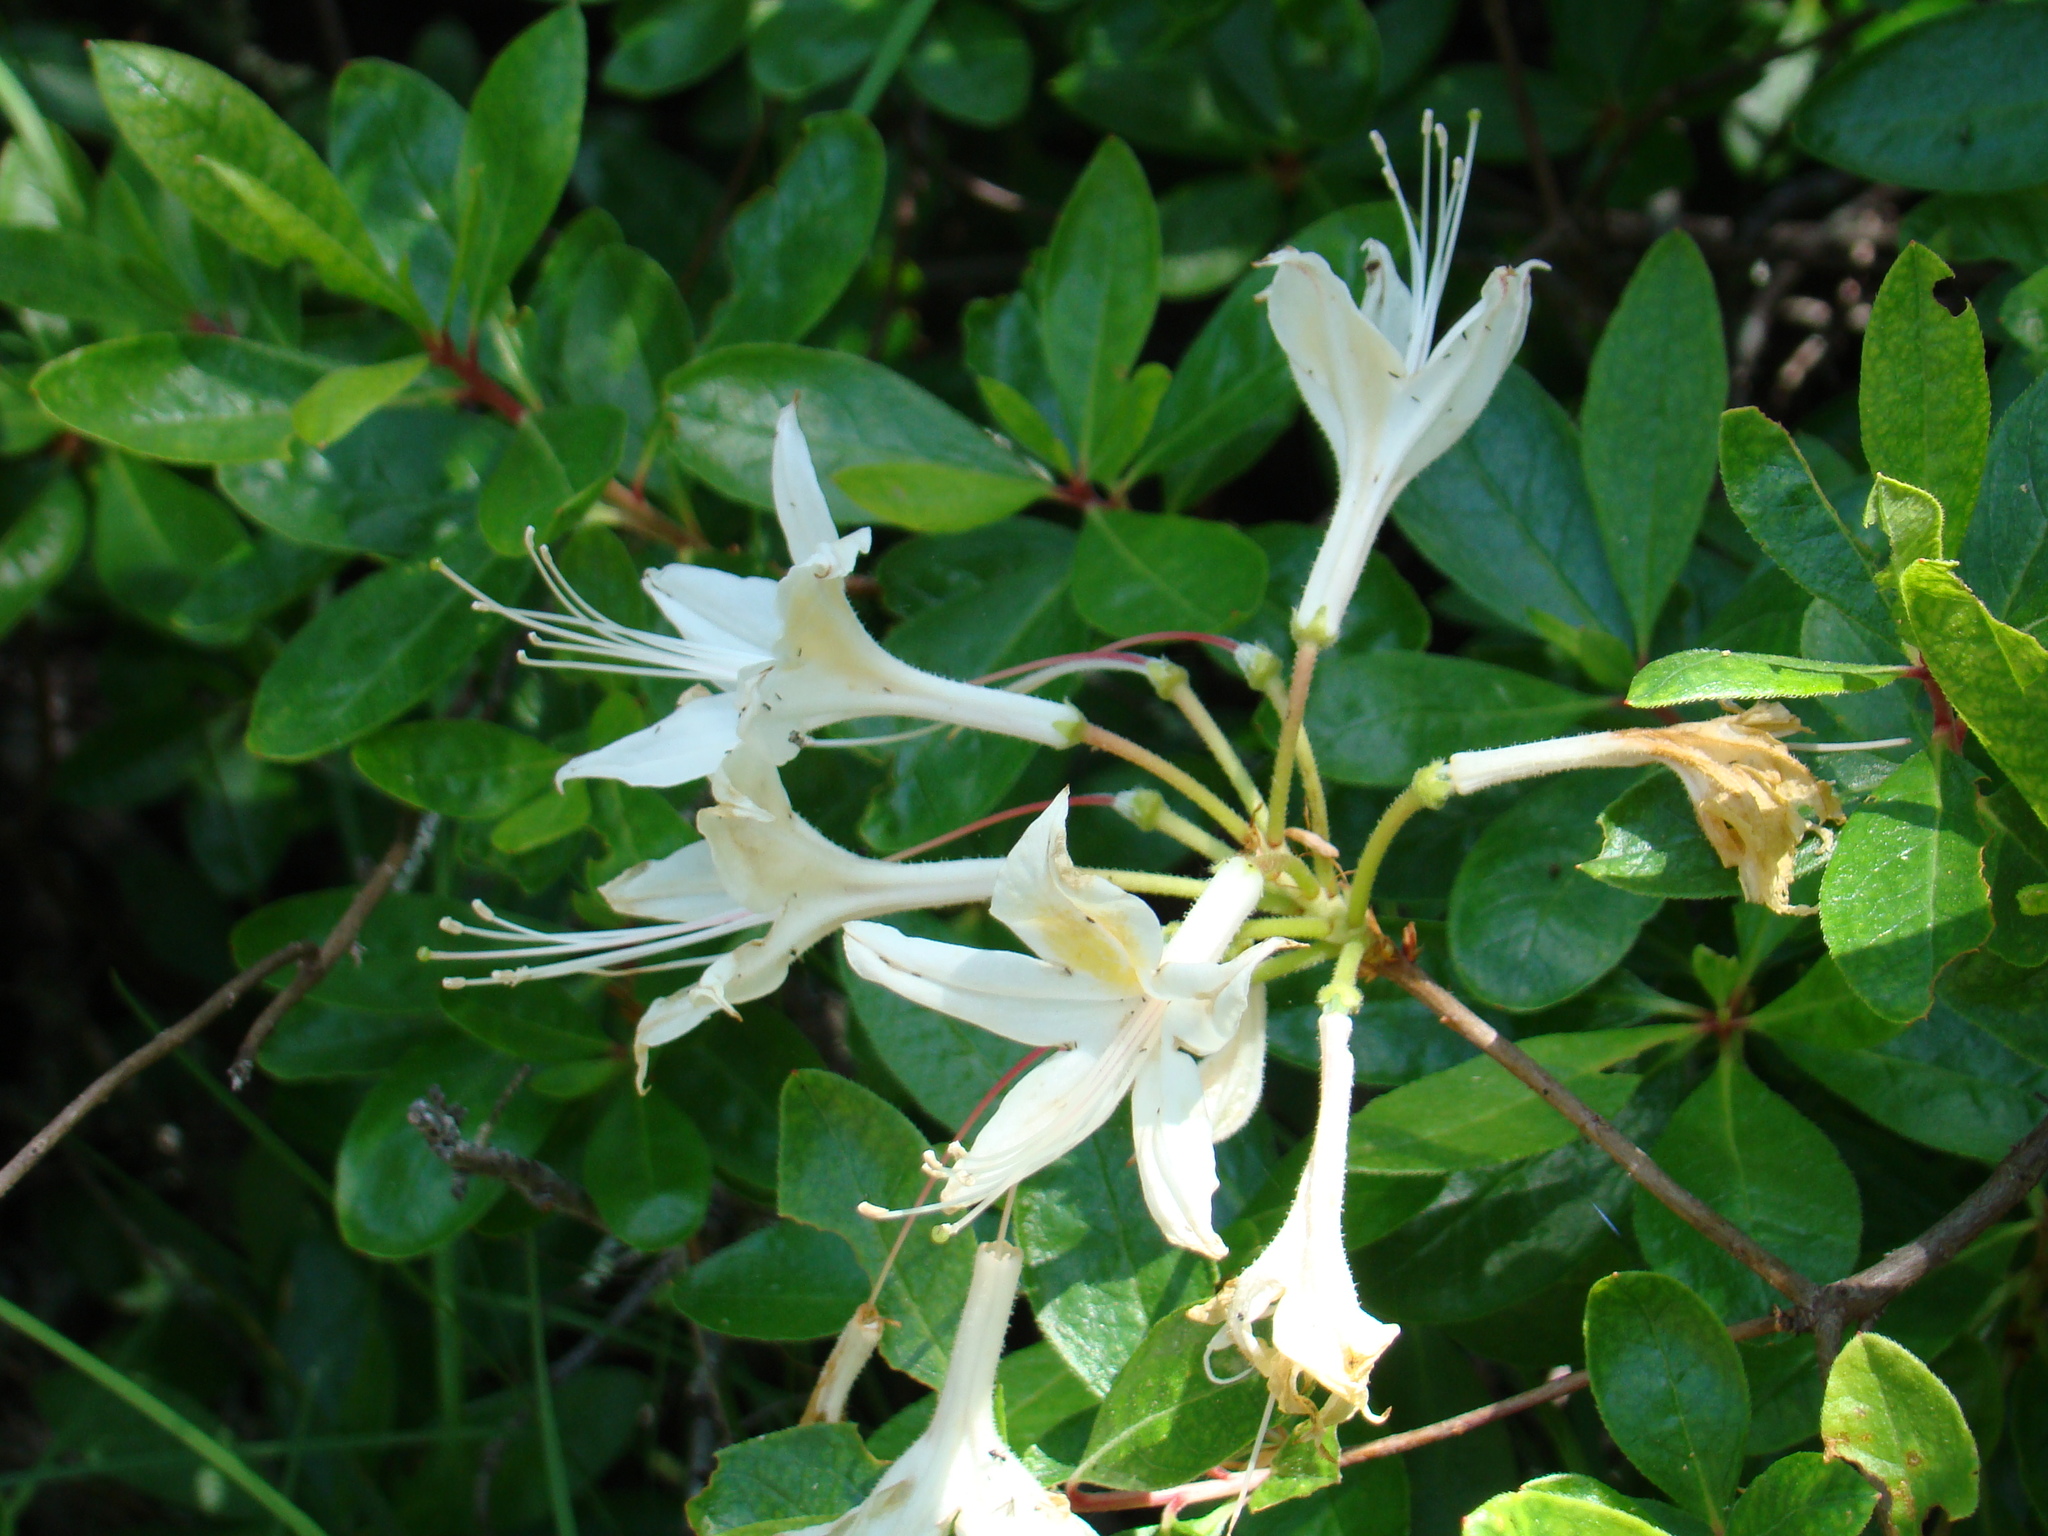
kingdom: Plantae
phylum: Tracheophyta
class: Magnoliopsida
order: Ericales
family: Ericaceae
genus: Rhododendron
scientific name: Rhododendron occidentale
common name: Western azalea
